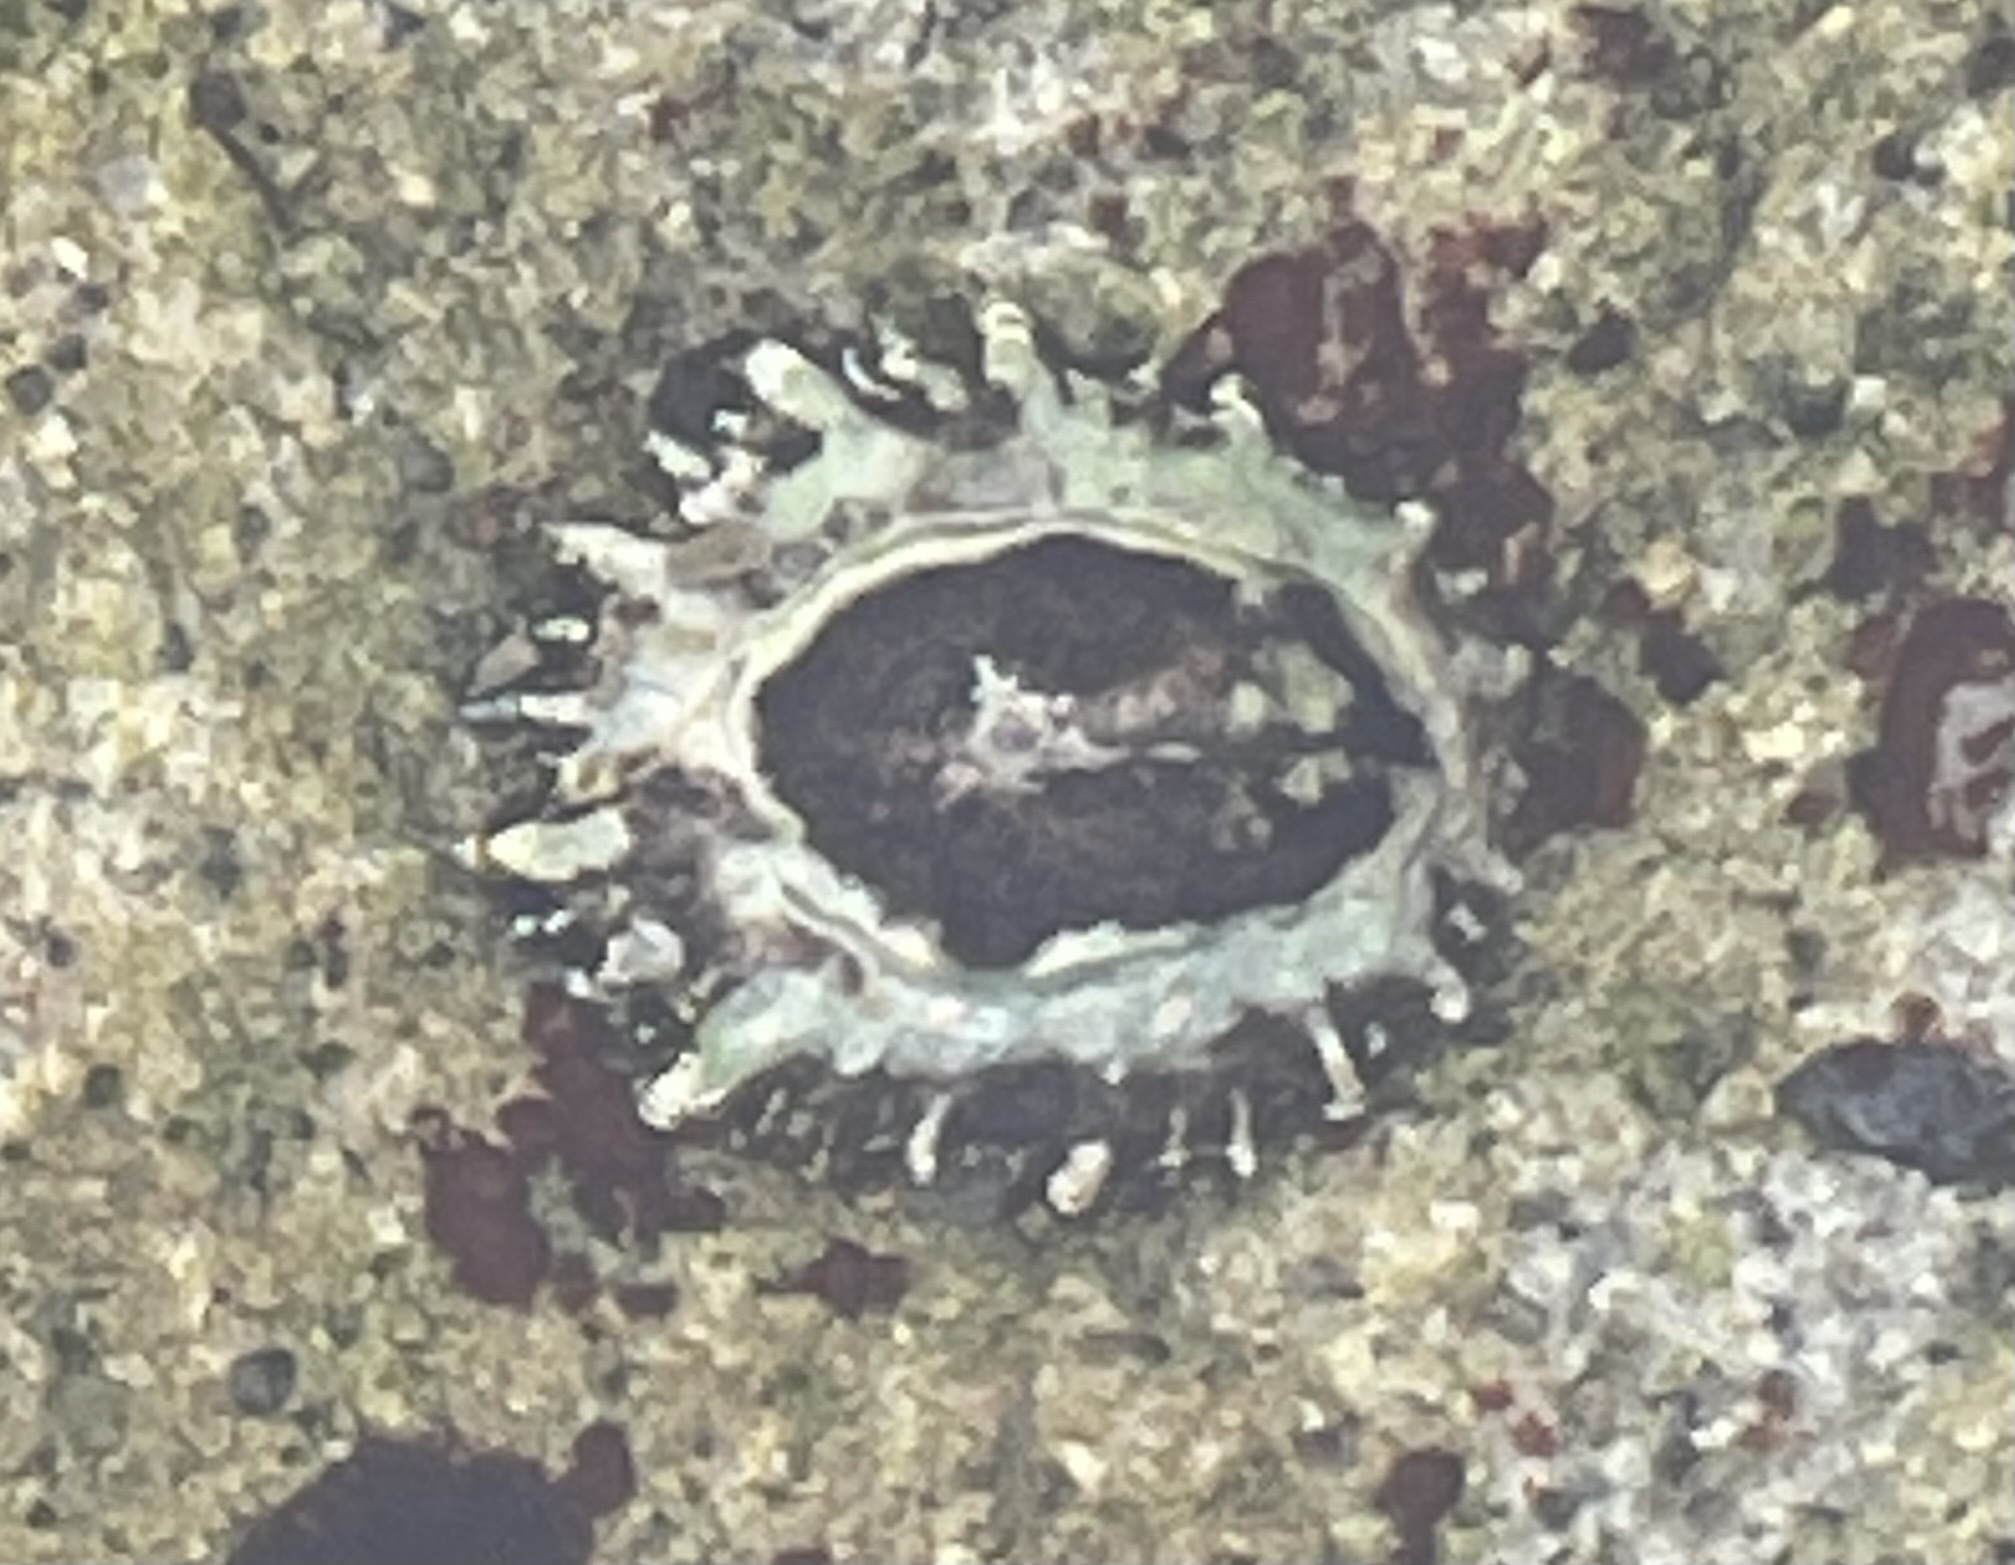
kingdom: Animalia
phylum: Mollusca
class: Gastropoda
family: Lottiidae
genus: Lottia
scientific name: Lottia scabra
